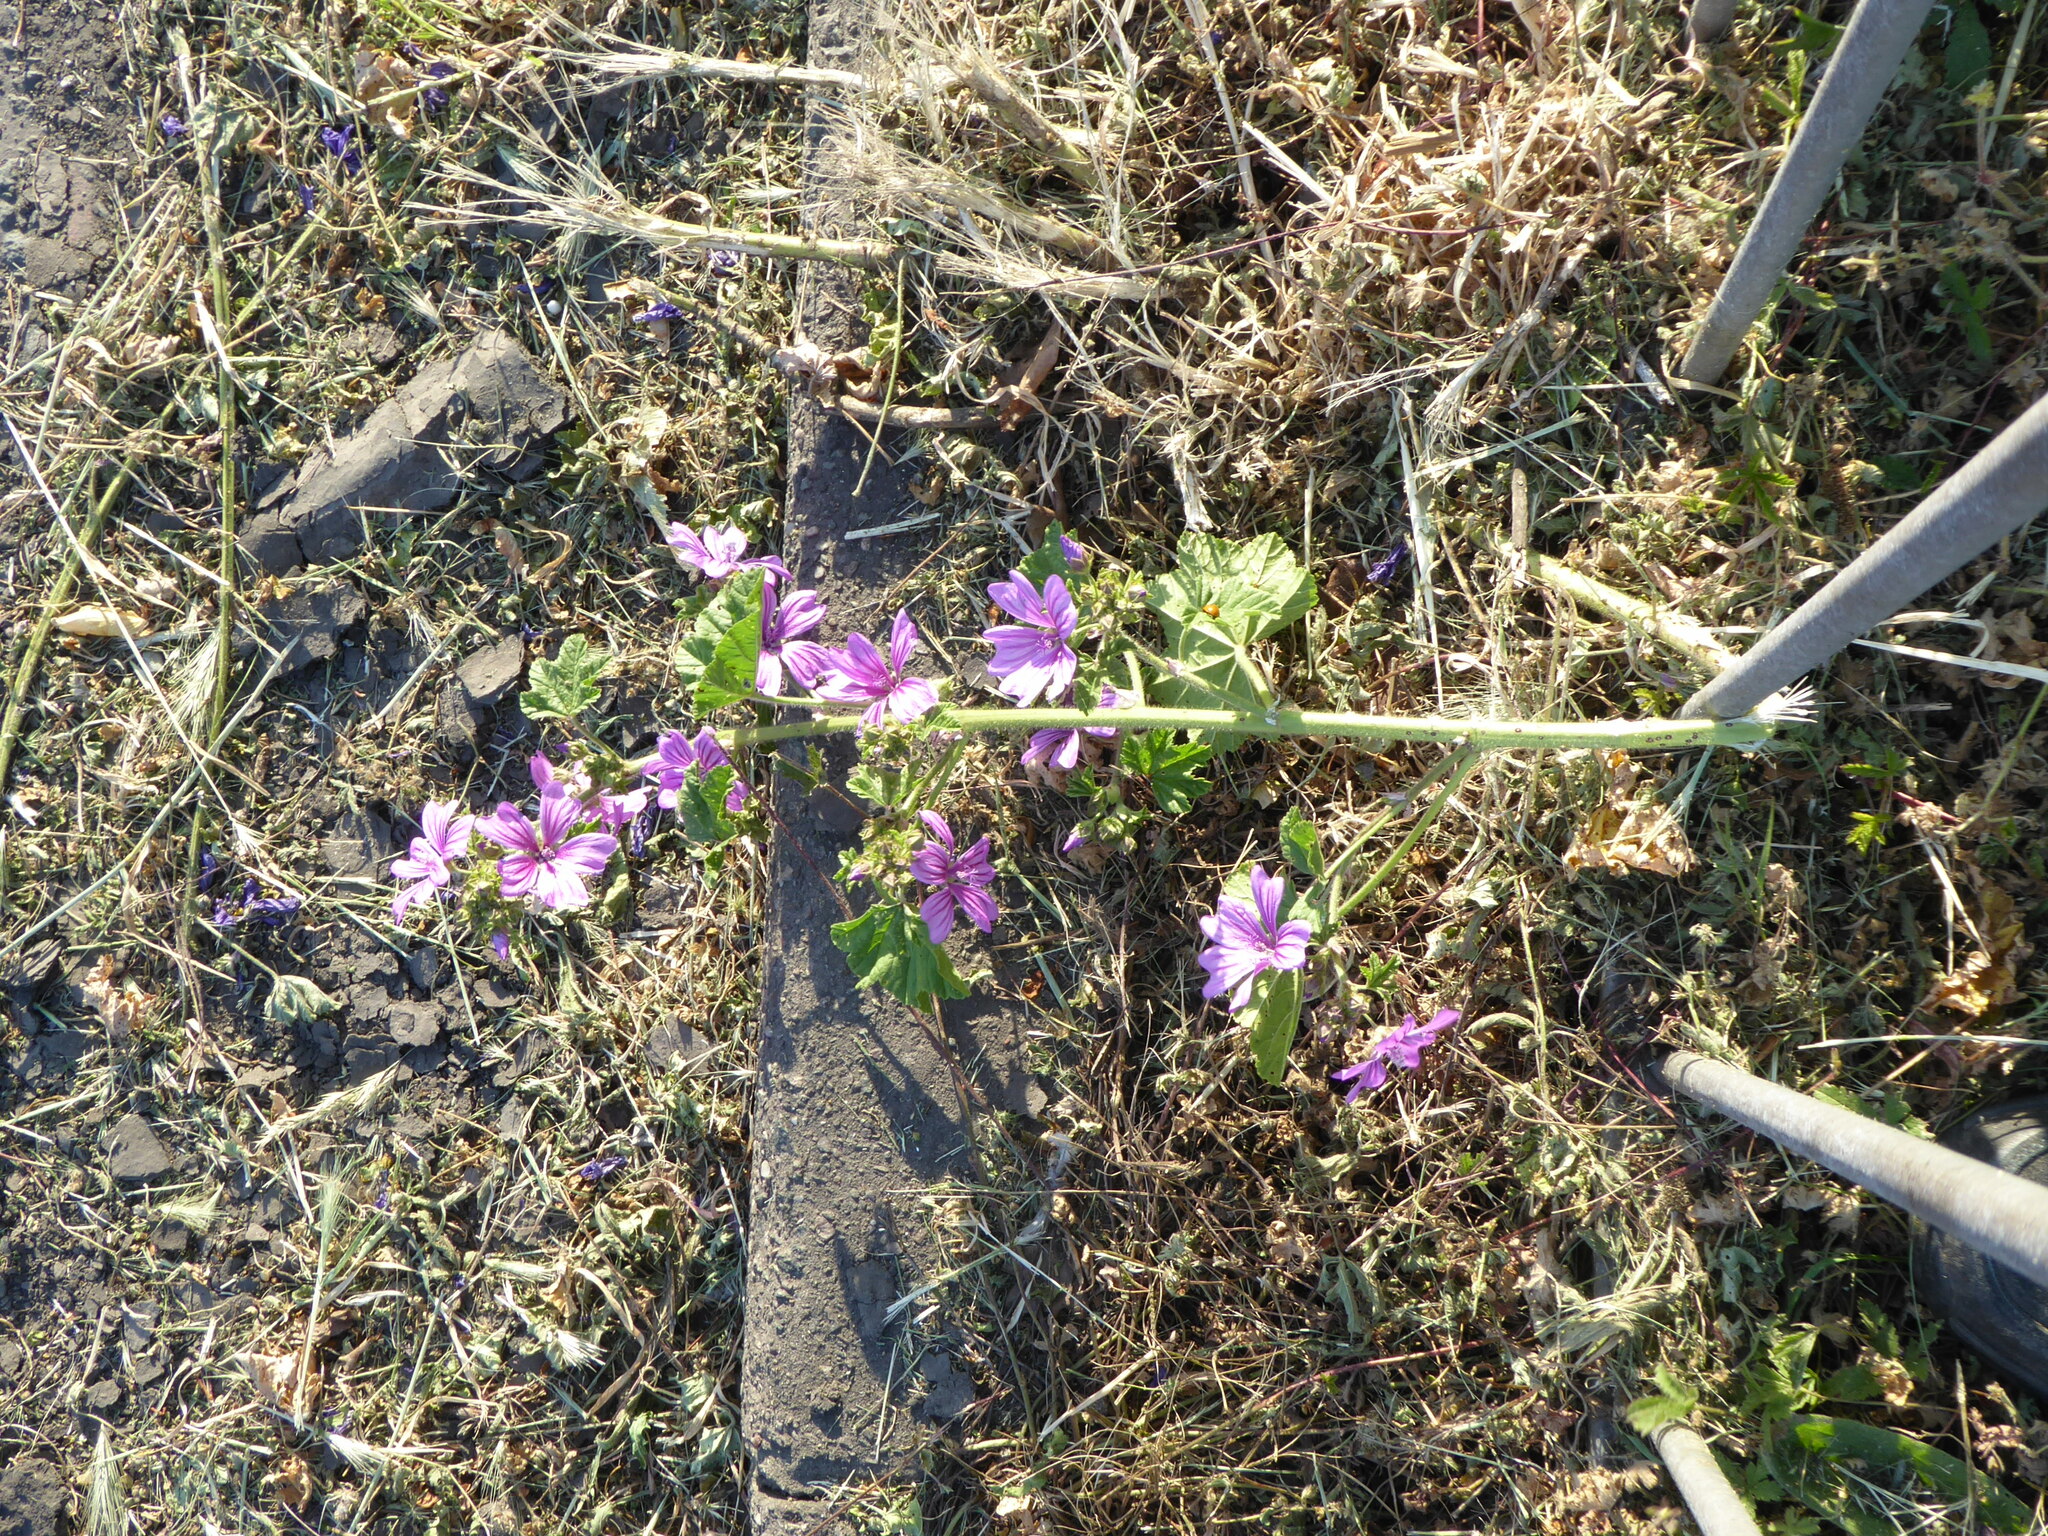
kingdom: Plantae
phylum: Tracheophyta
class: Magnoliopsida
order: Malvales
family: Malvaceae
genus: Malva
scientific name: Malva sylvestris
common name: Common mallow
